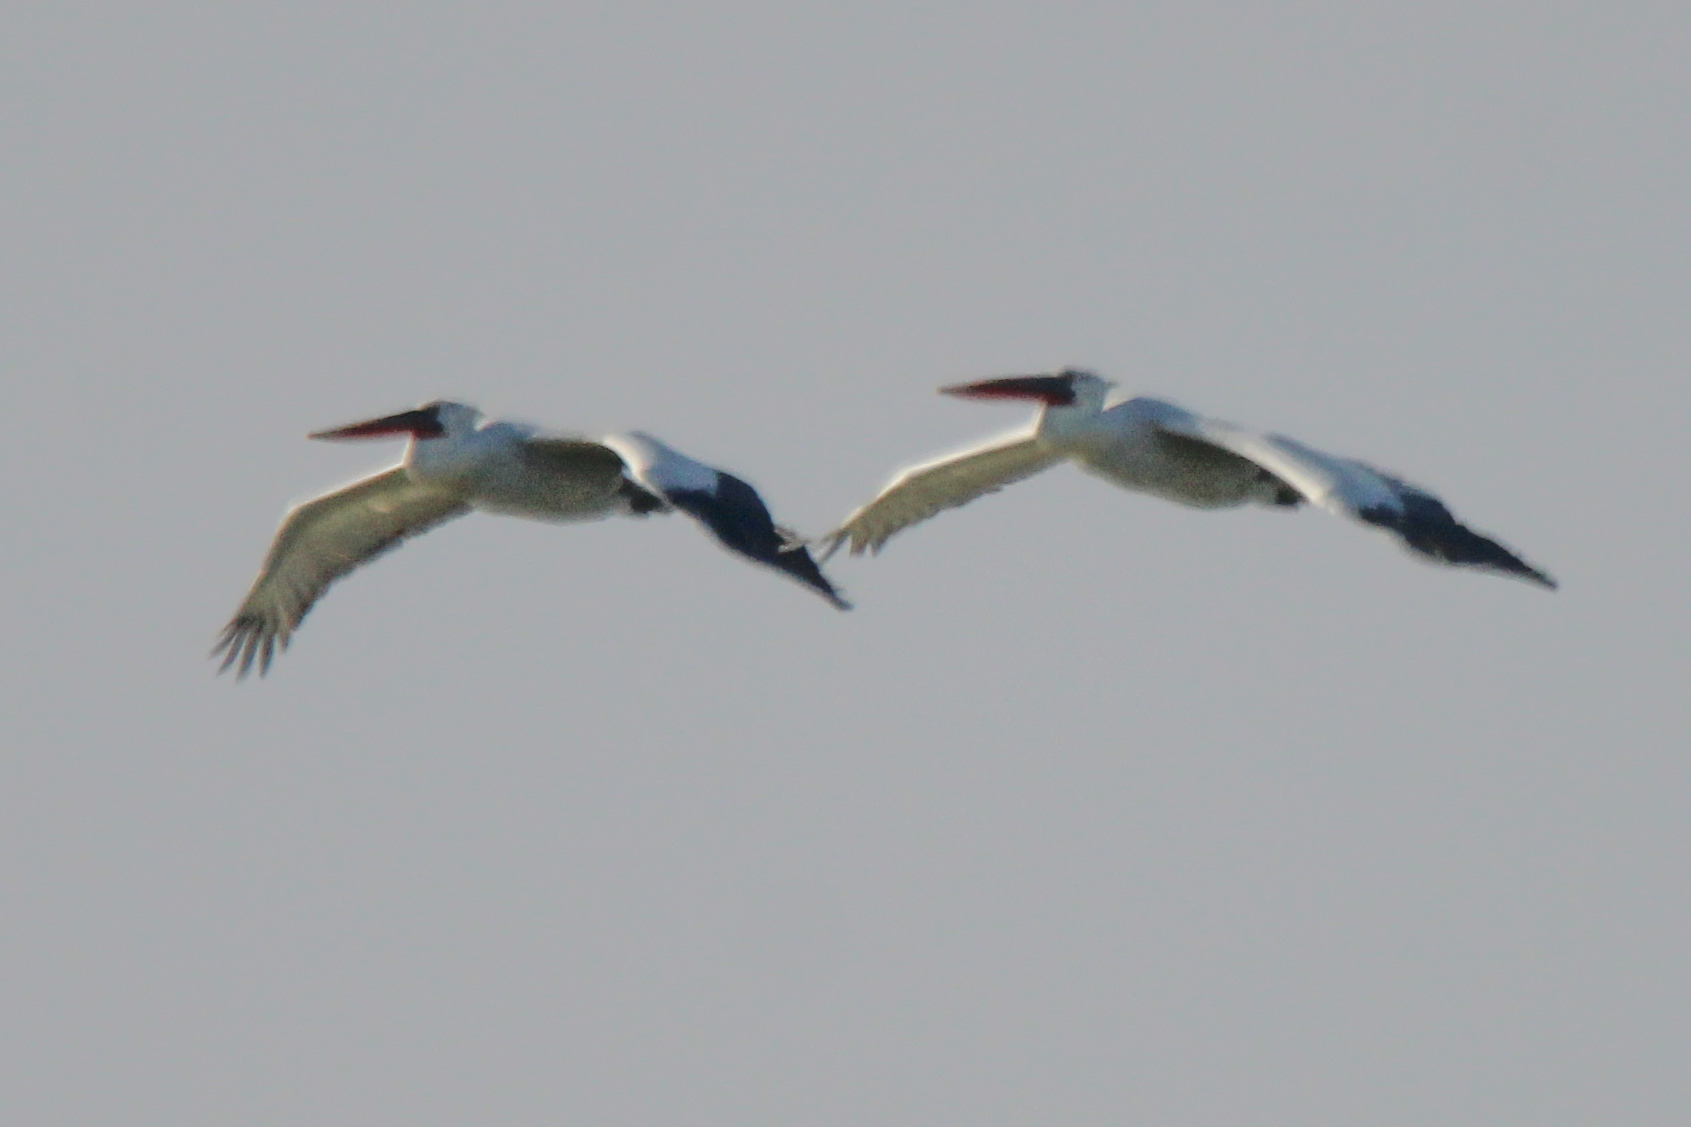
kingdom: Animalia
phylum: Chordata
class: Aves
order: Pelecaniformes
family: Pelecanidae
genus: Pelecanus
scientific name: Pelecanus crispus
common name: Dalmatian pelican
